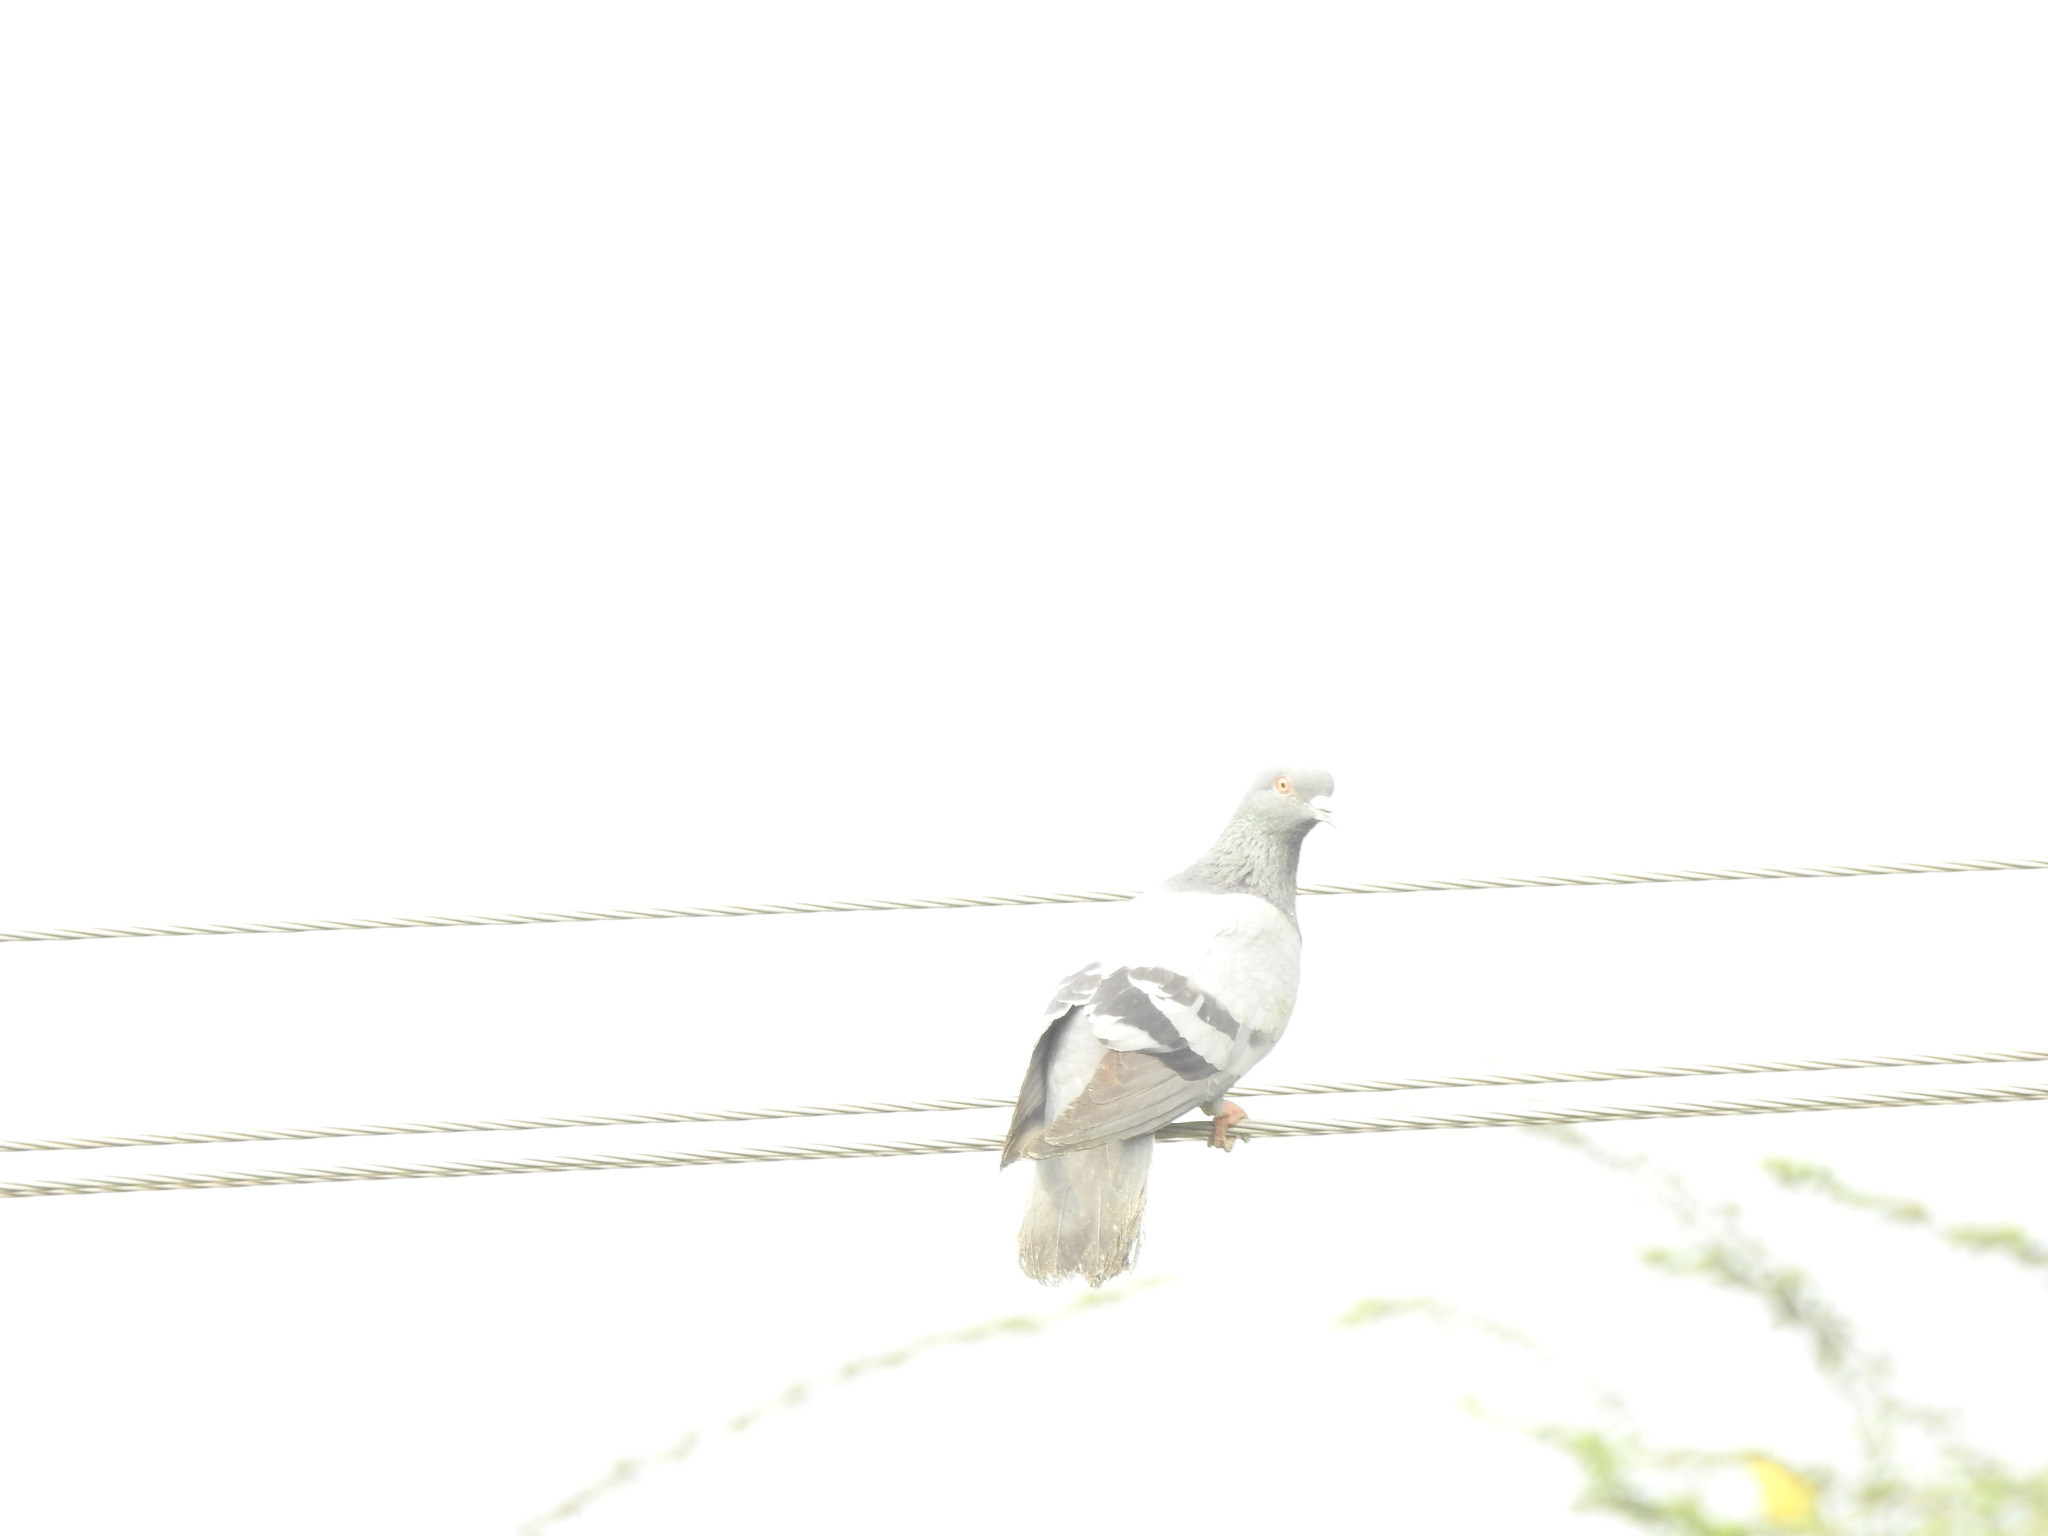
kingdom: Animalia
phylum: Chordata
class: Aves
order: Columbiformes
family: Columbidae
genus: Columba
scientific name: Columba livia
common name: Rock pigeon
